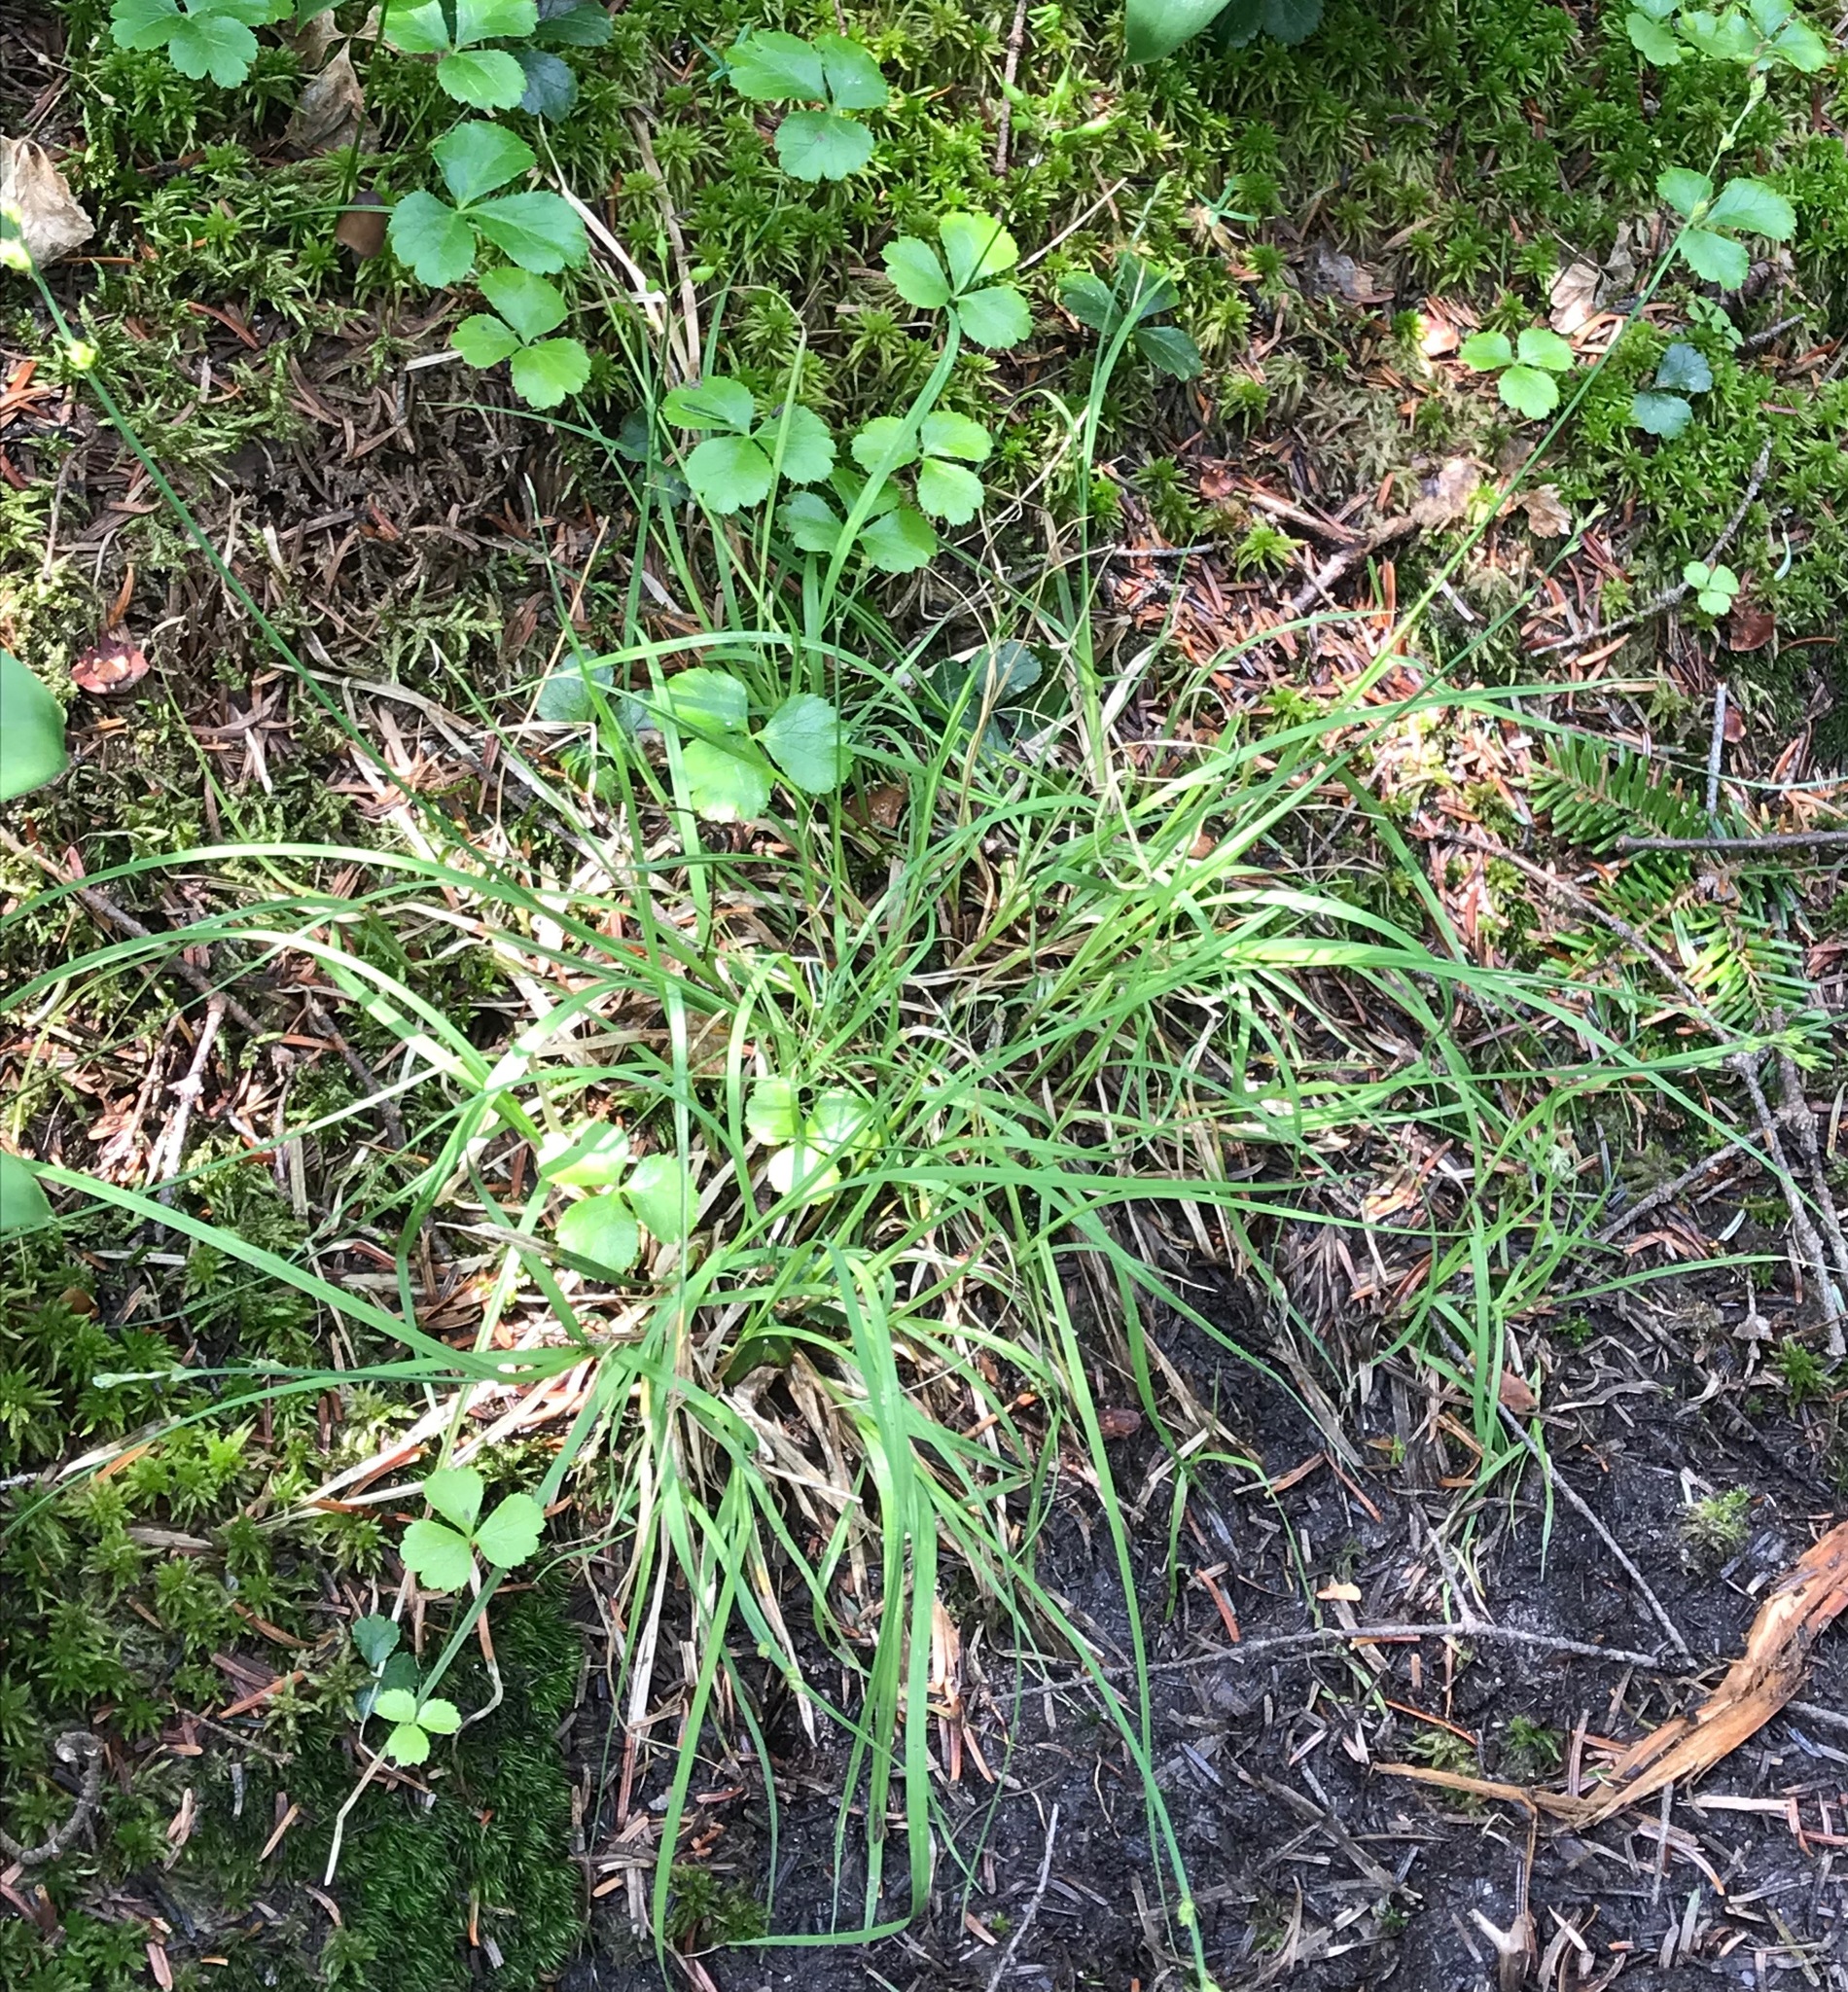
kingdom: Plantae
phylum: Tracheophyta
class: Liliopsida
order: Poales
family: Cyperaceae
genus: Carex
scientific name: Carex brunnescens
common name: Brown sedge
